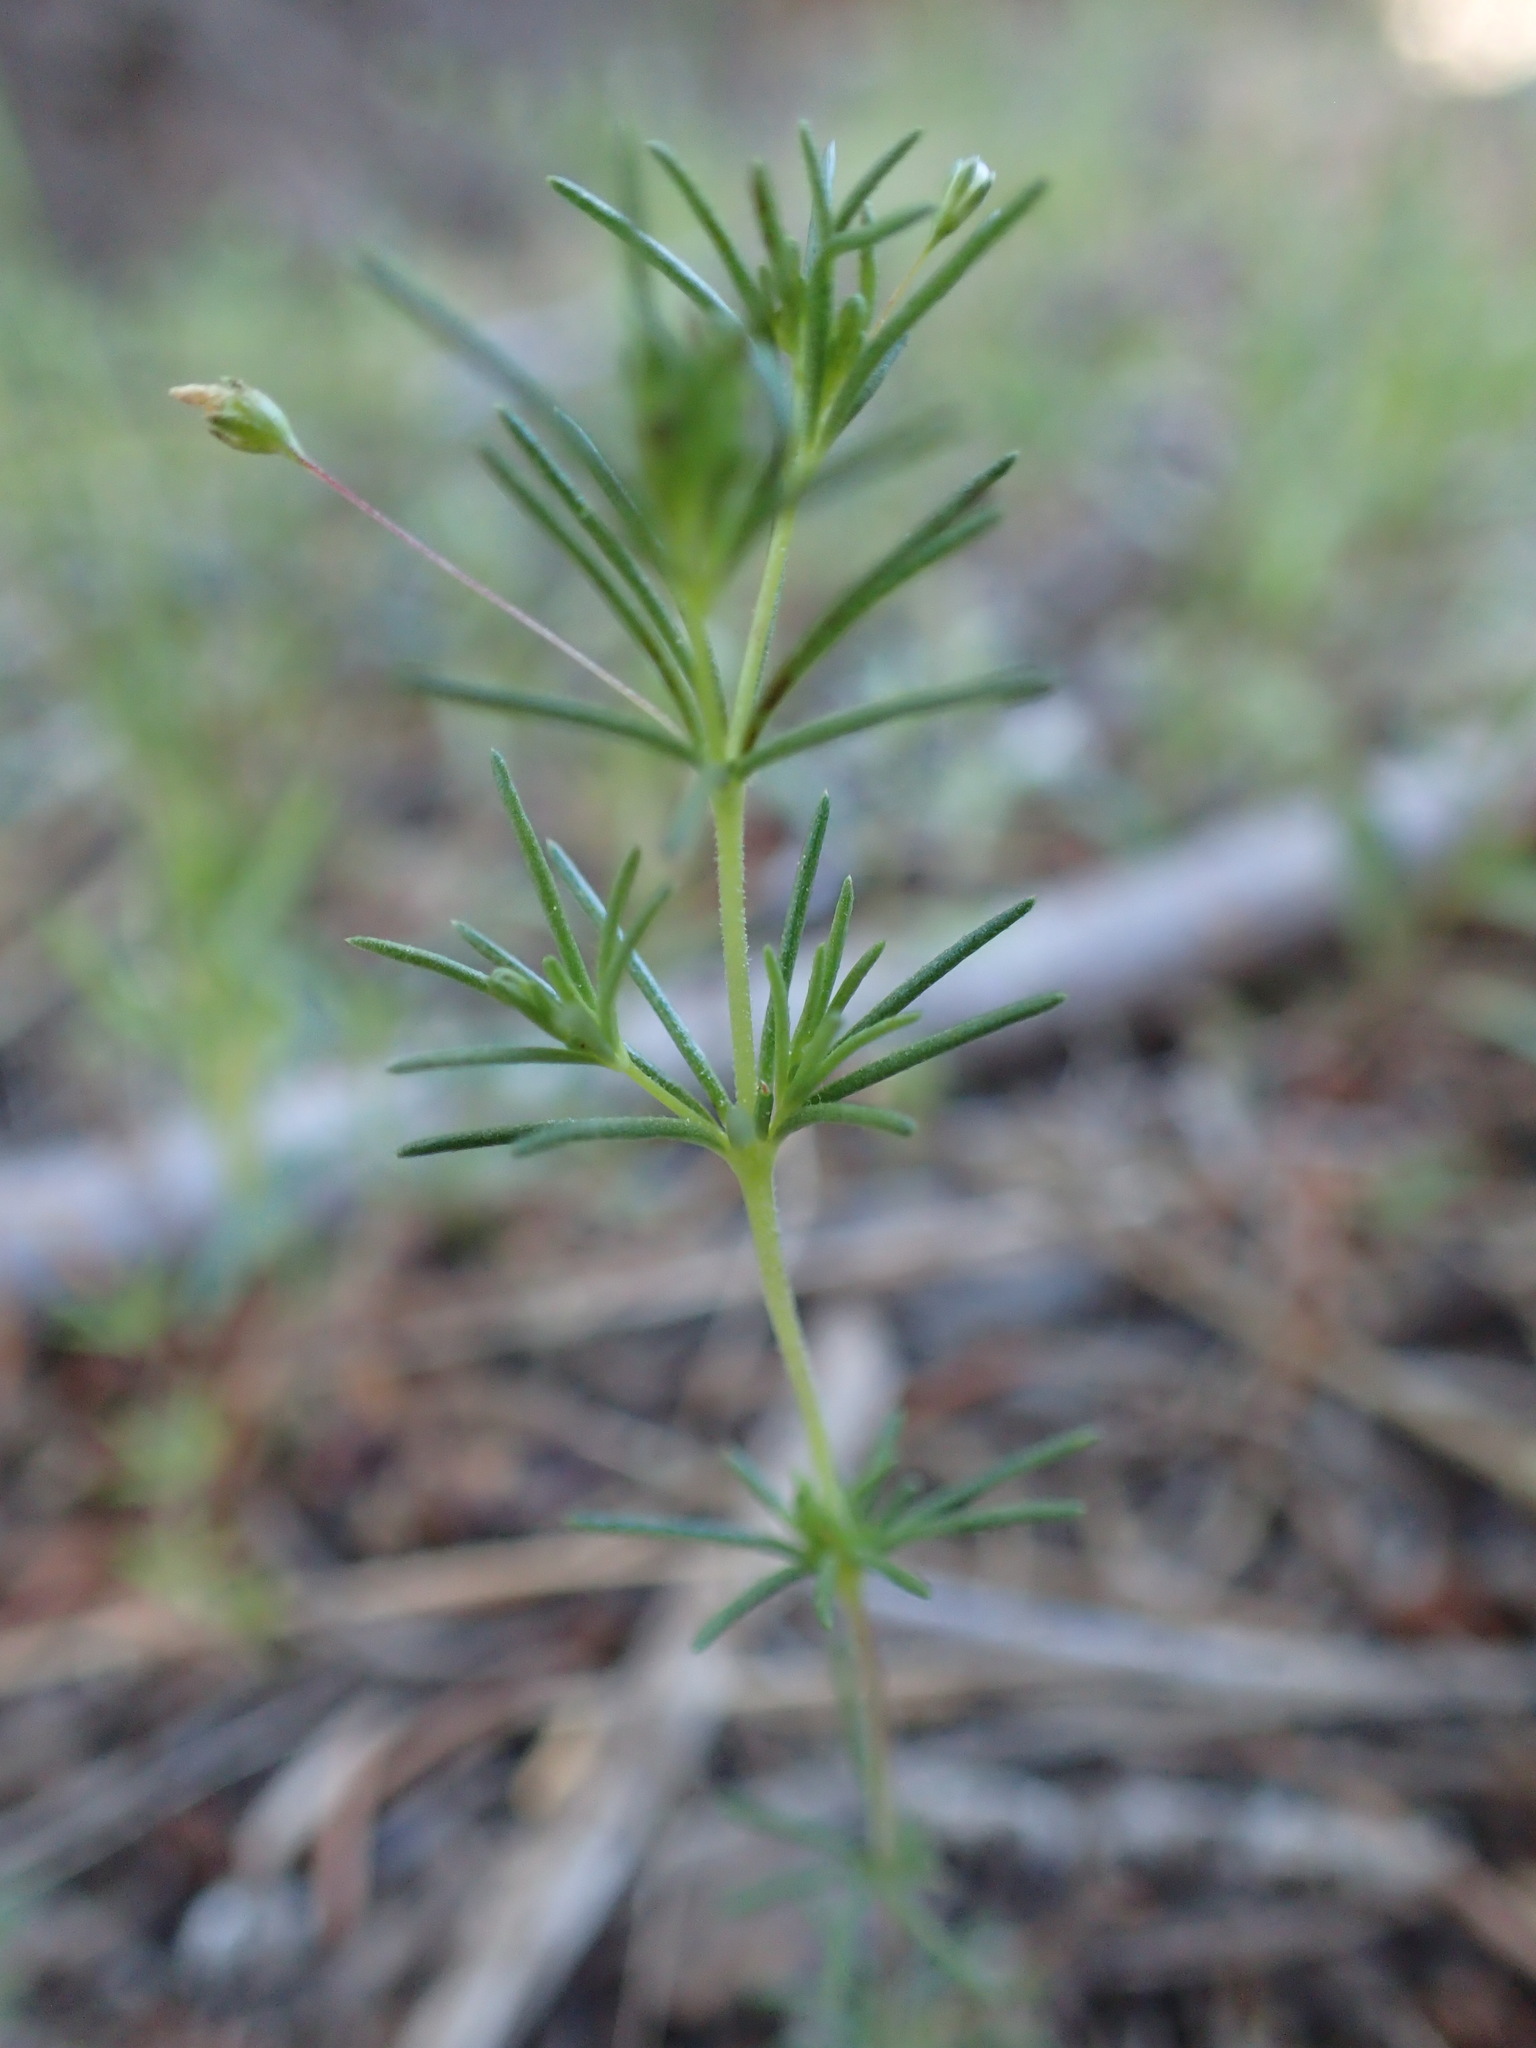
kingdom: Plantae
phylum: Tracheophyta
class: Magnoliopsida
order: Ericales
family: Polemoniaceae
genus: Linanthus
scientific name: Linanthus harknessii
